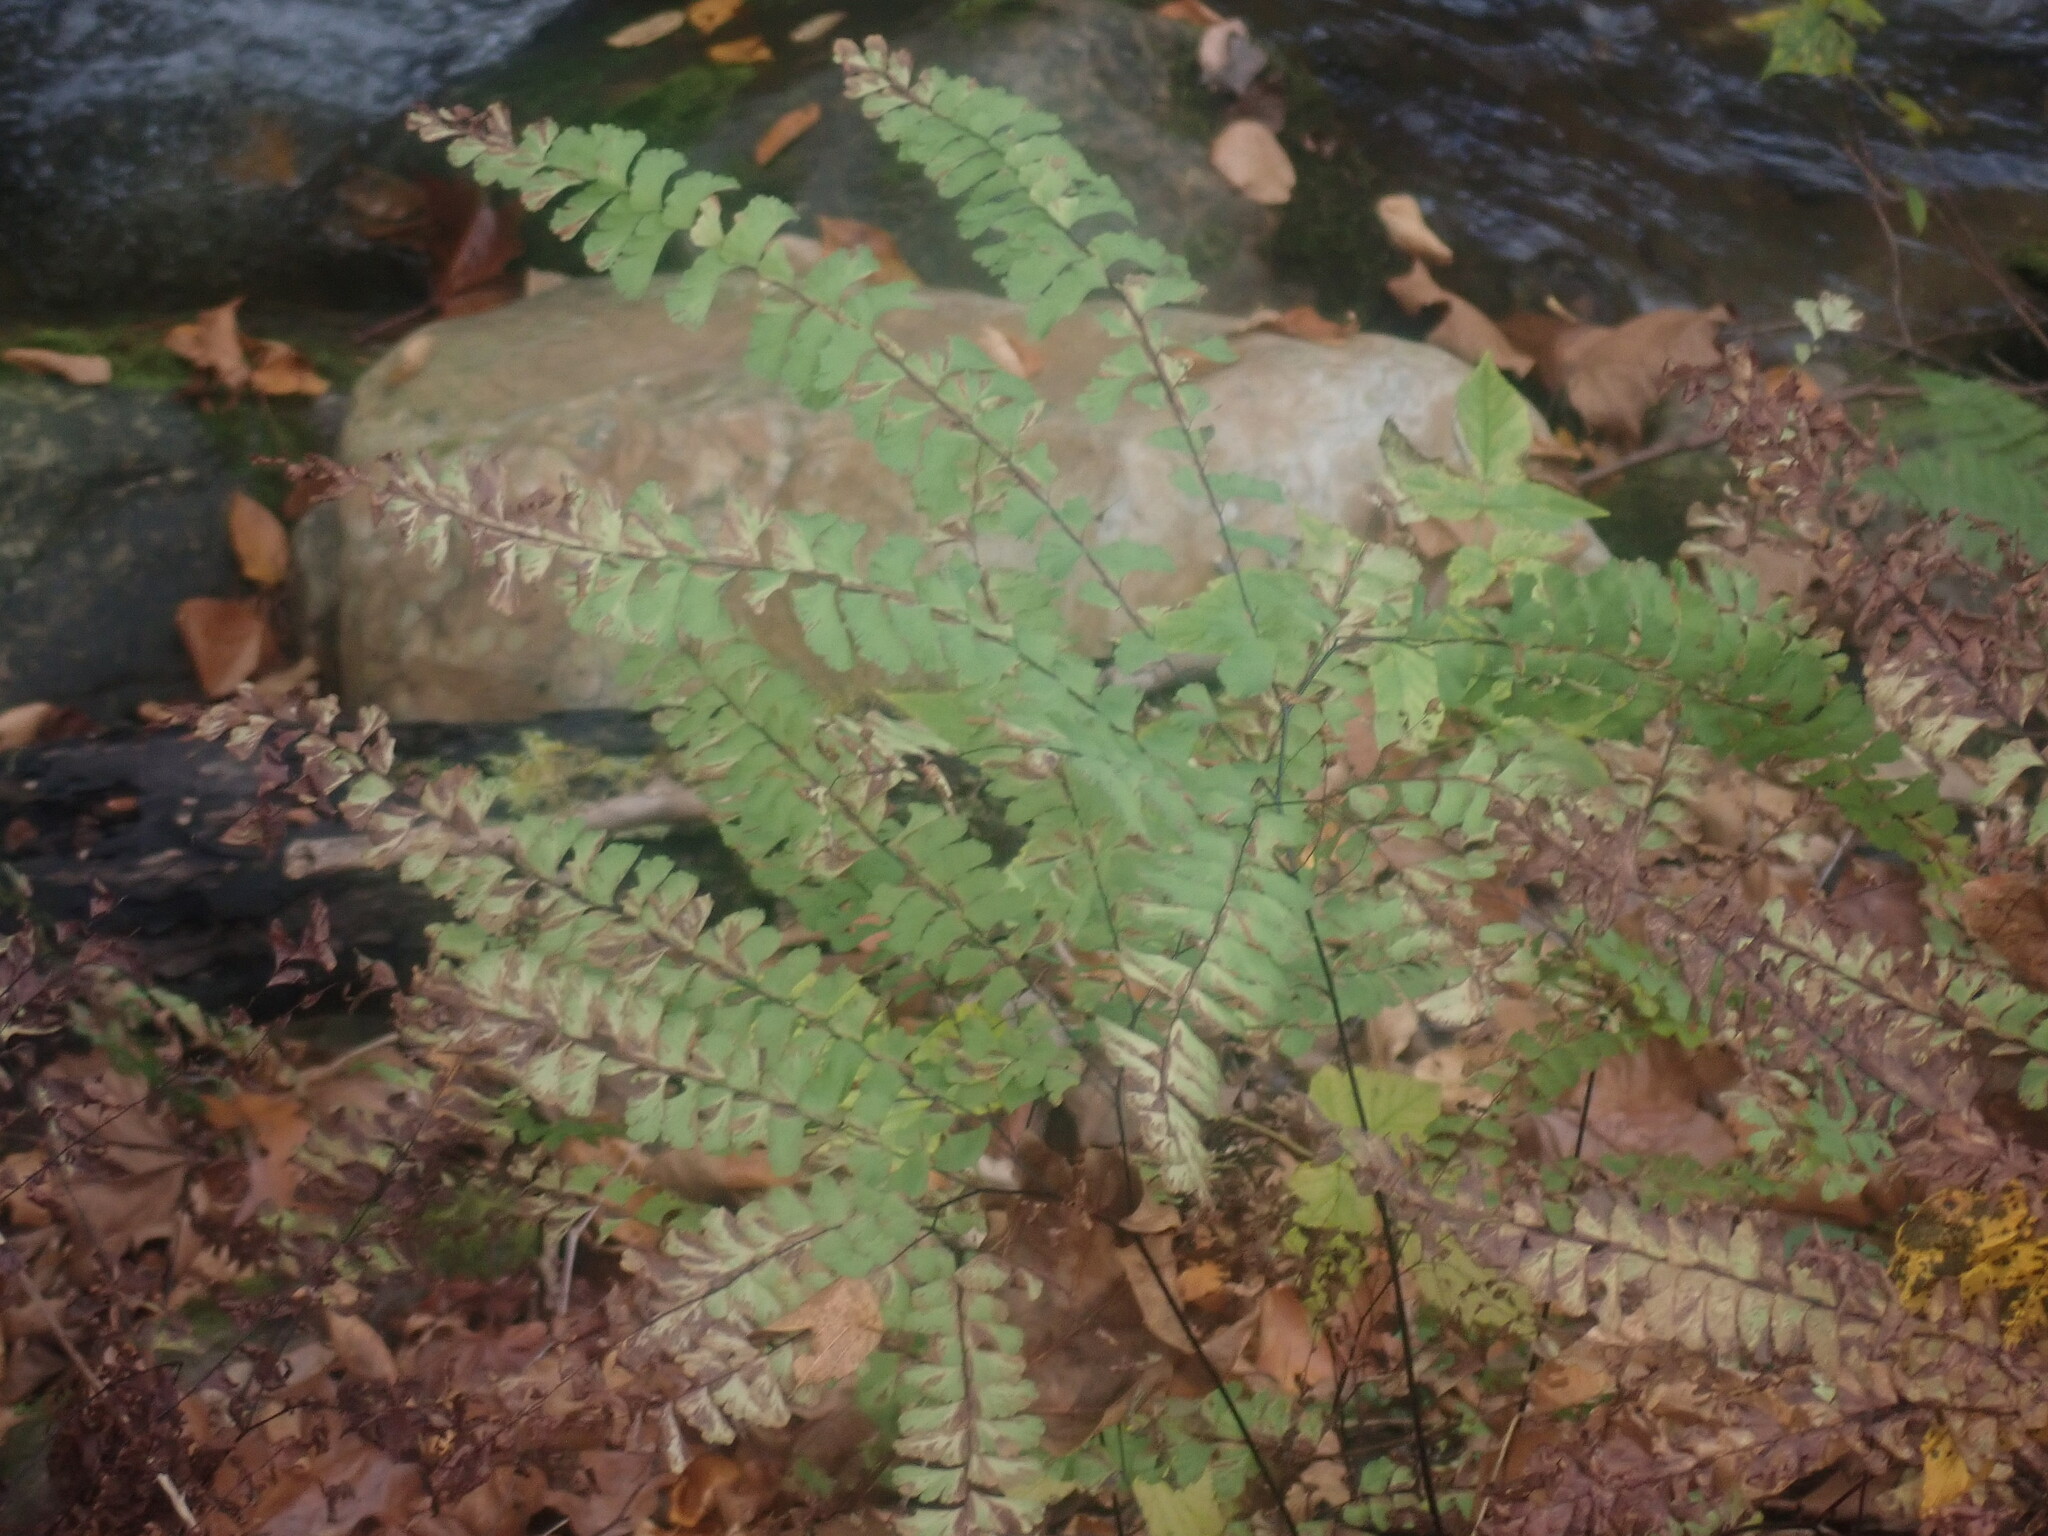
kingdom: Plantae
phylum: Tracheophyta
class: Polypodiopsida
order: Polypodiales
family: Pteridaceae
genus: Adiantum
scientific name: Adiantum pedatum
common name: Five-finger fern
